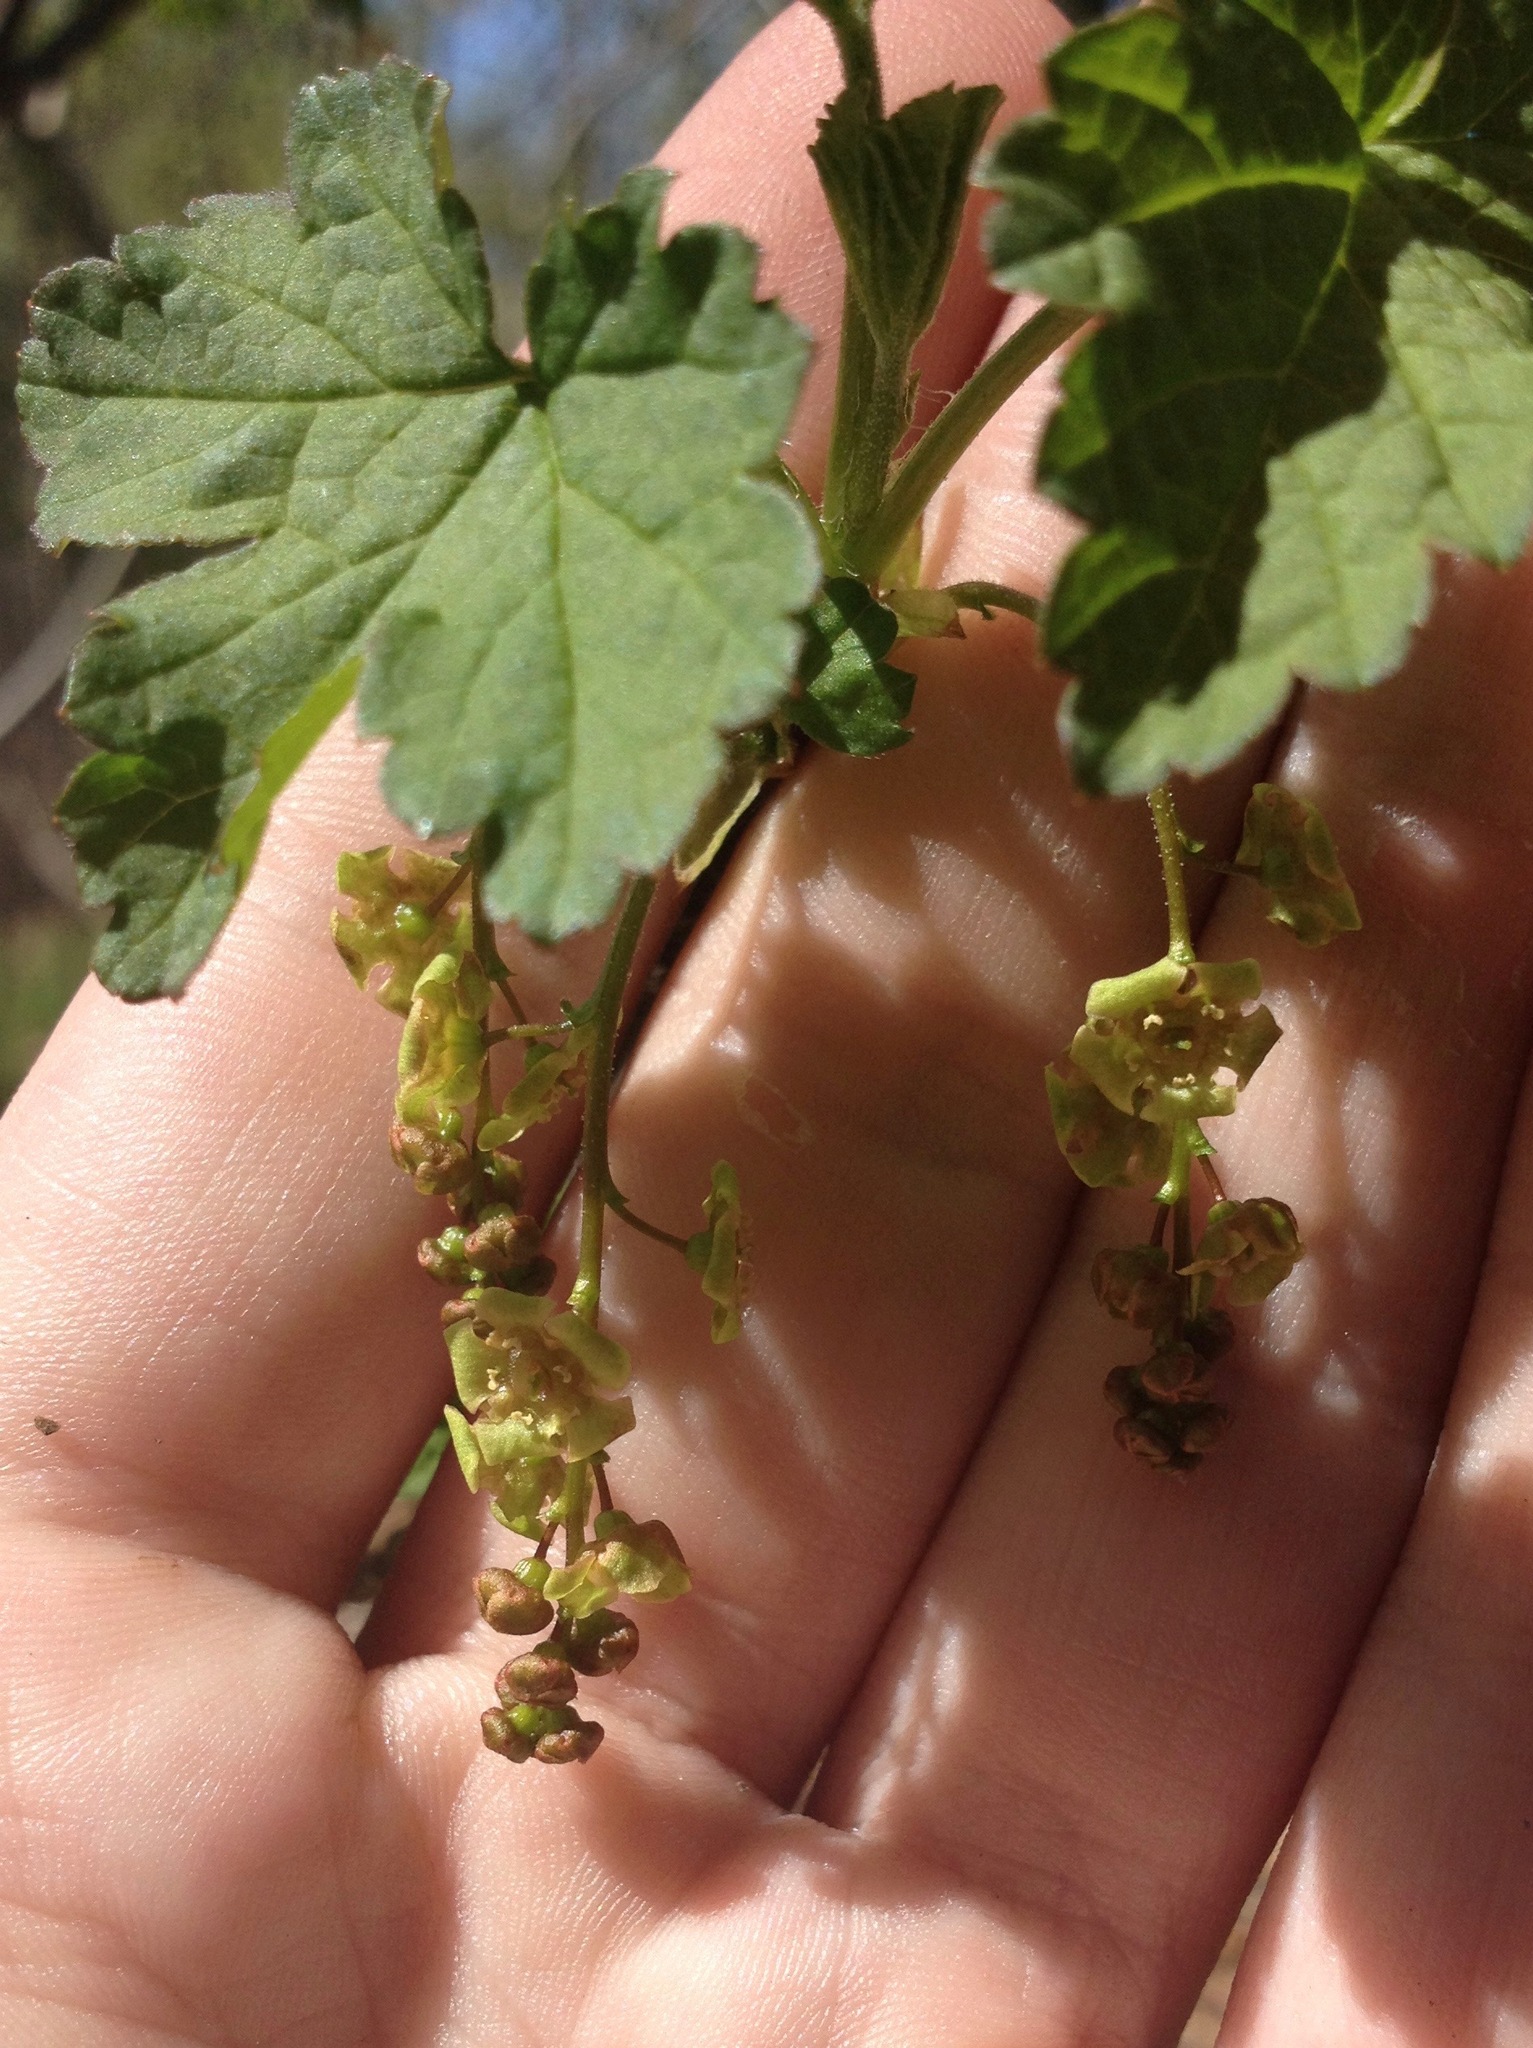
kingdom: Plantae
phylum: Tracheophyta
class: Magnoliopsida
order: Saxifragales
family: Grossulariaceae
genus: Ribes
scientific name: Ribes rubrum
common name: Red currant
